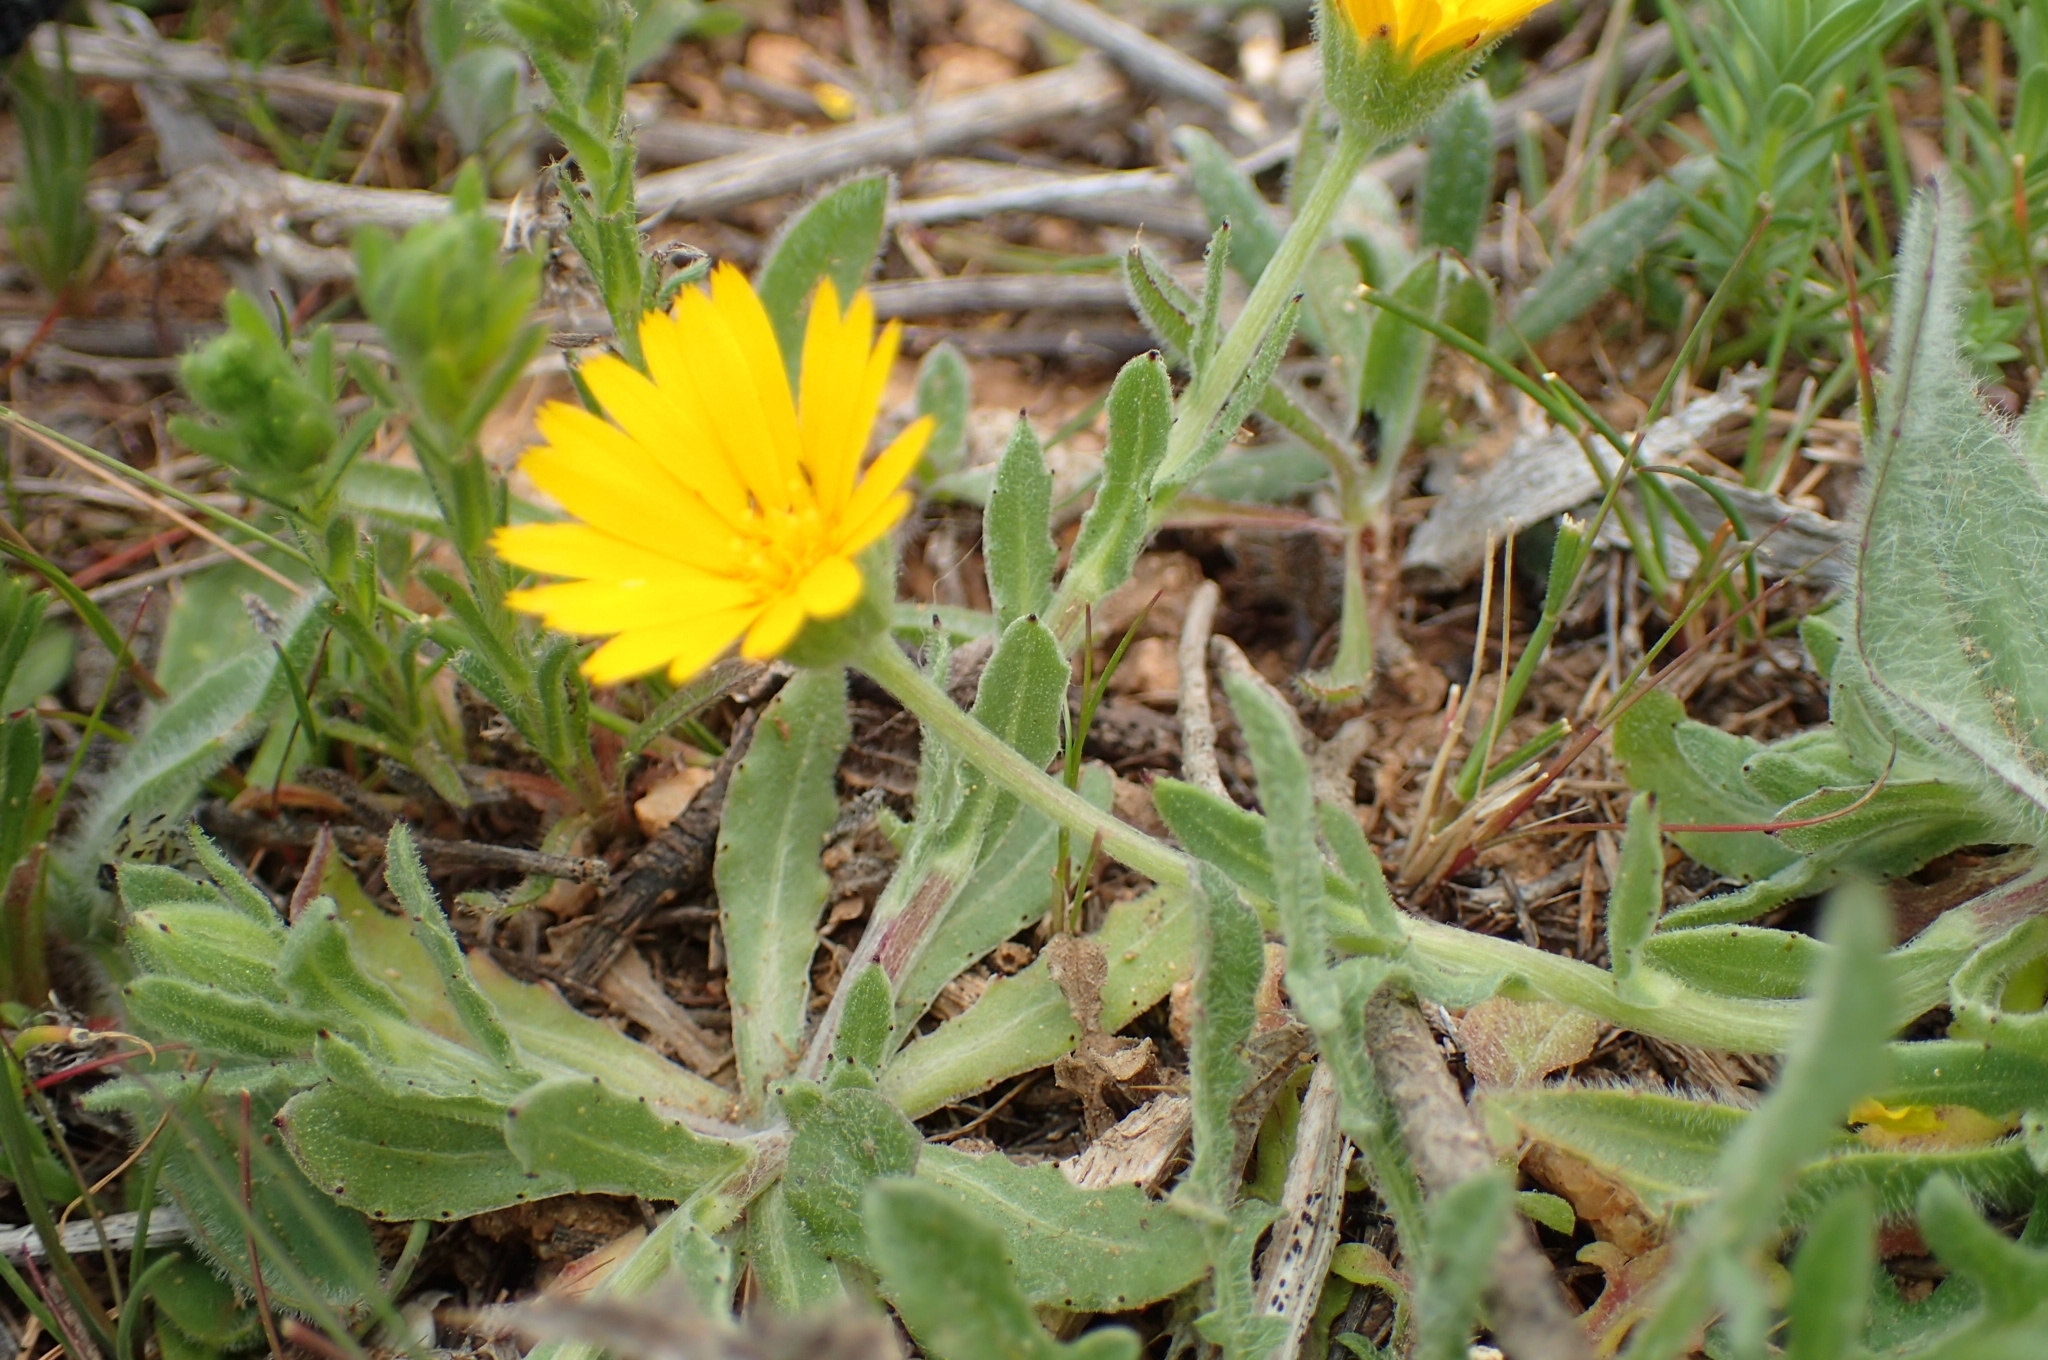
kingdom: Plantae
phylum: Tracheophyta
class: Magnoliopsida
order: Asterales
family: Asteraceae
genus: Calendula
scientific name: Calendula arvensis
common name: Field marigold
